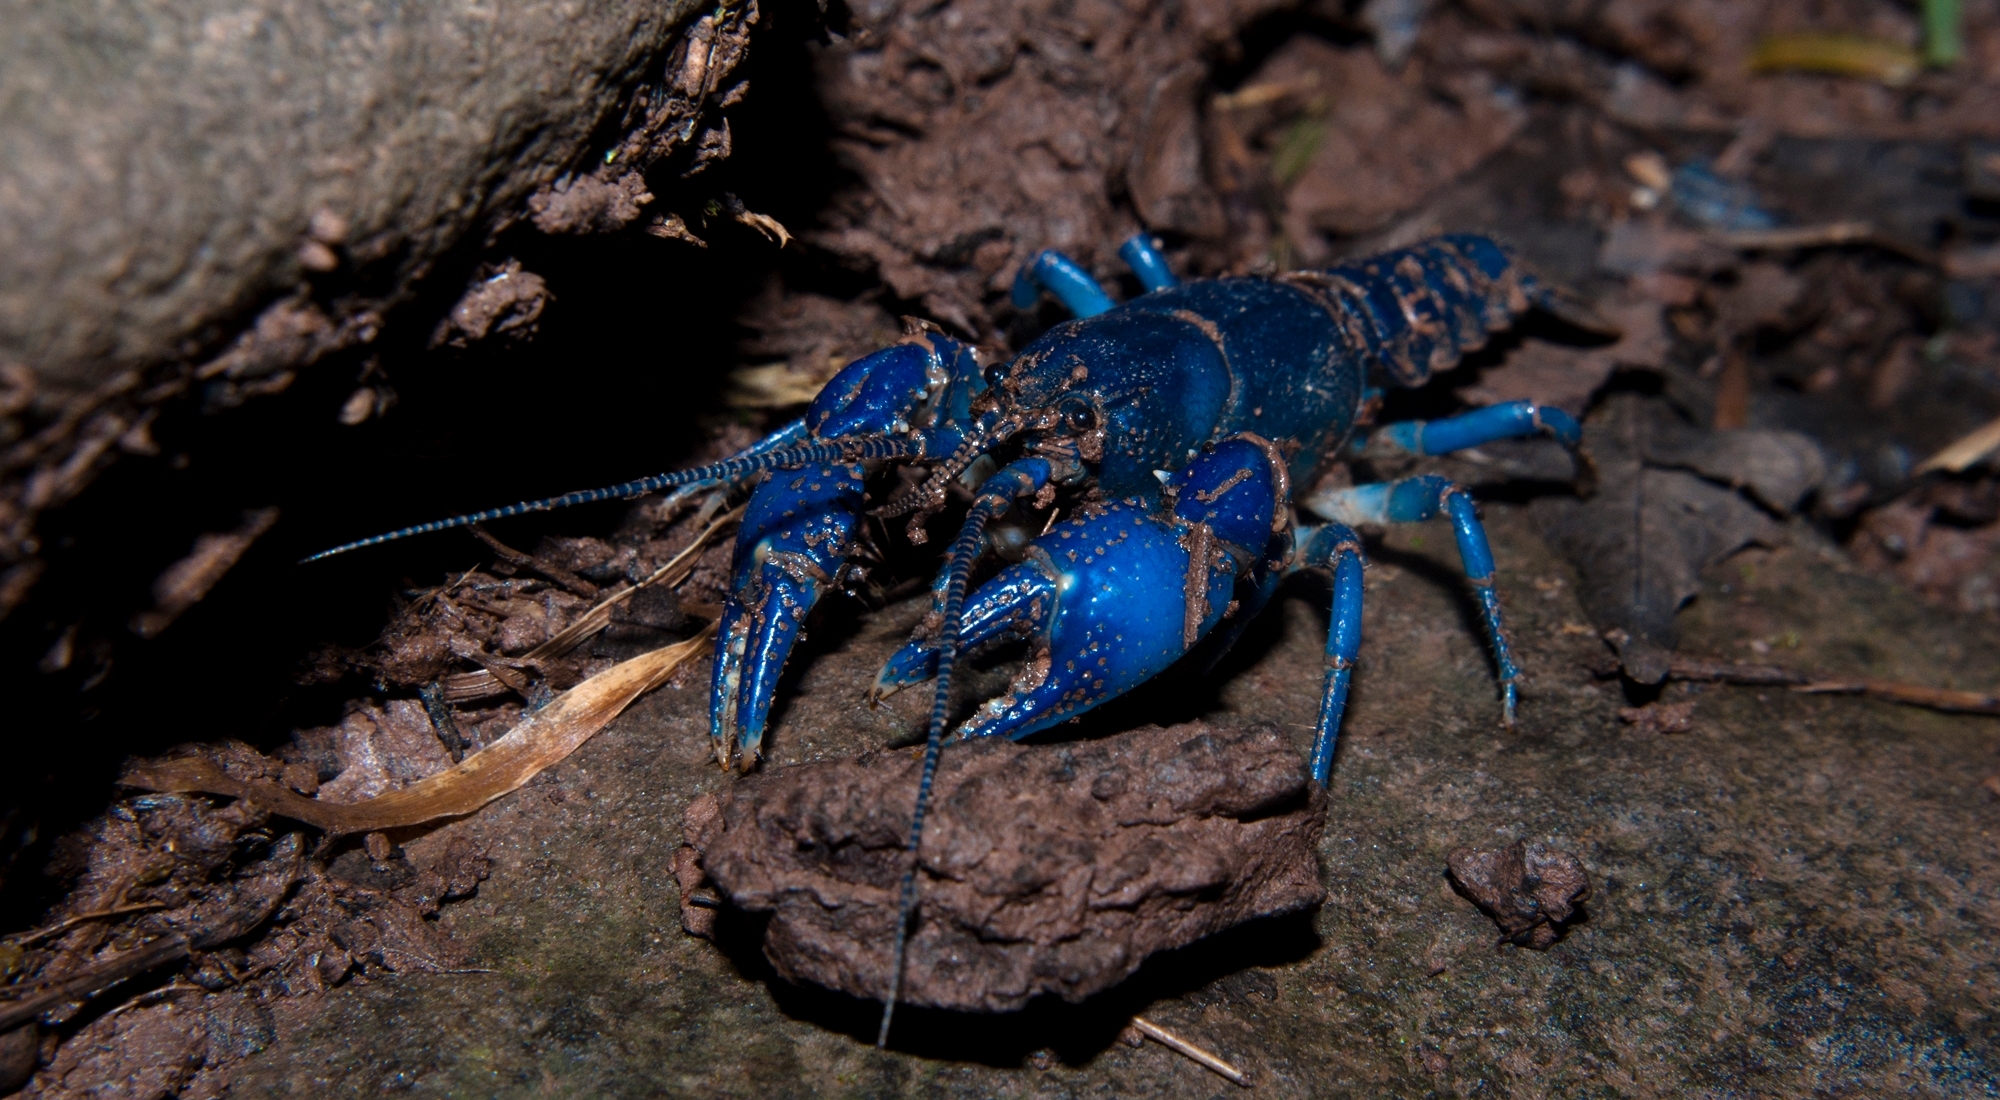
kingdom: Animalia
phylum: Arthropoda
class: Malacostraca
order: Decapoda
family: Cambaridae
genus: Cambarus
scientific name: Cambarus fetzneri
